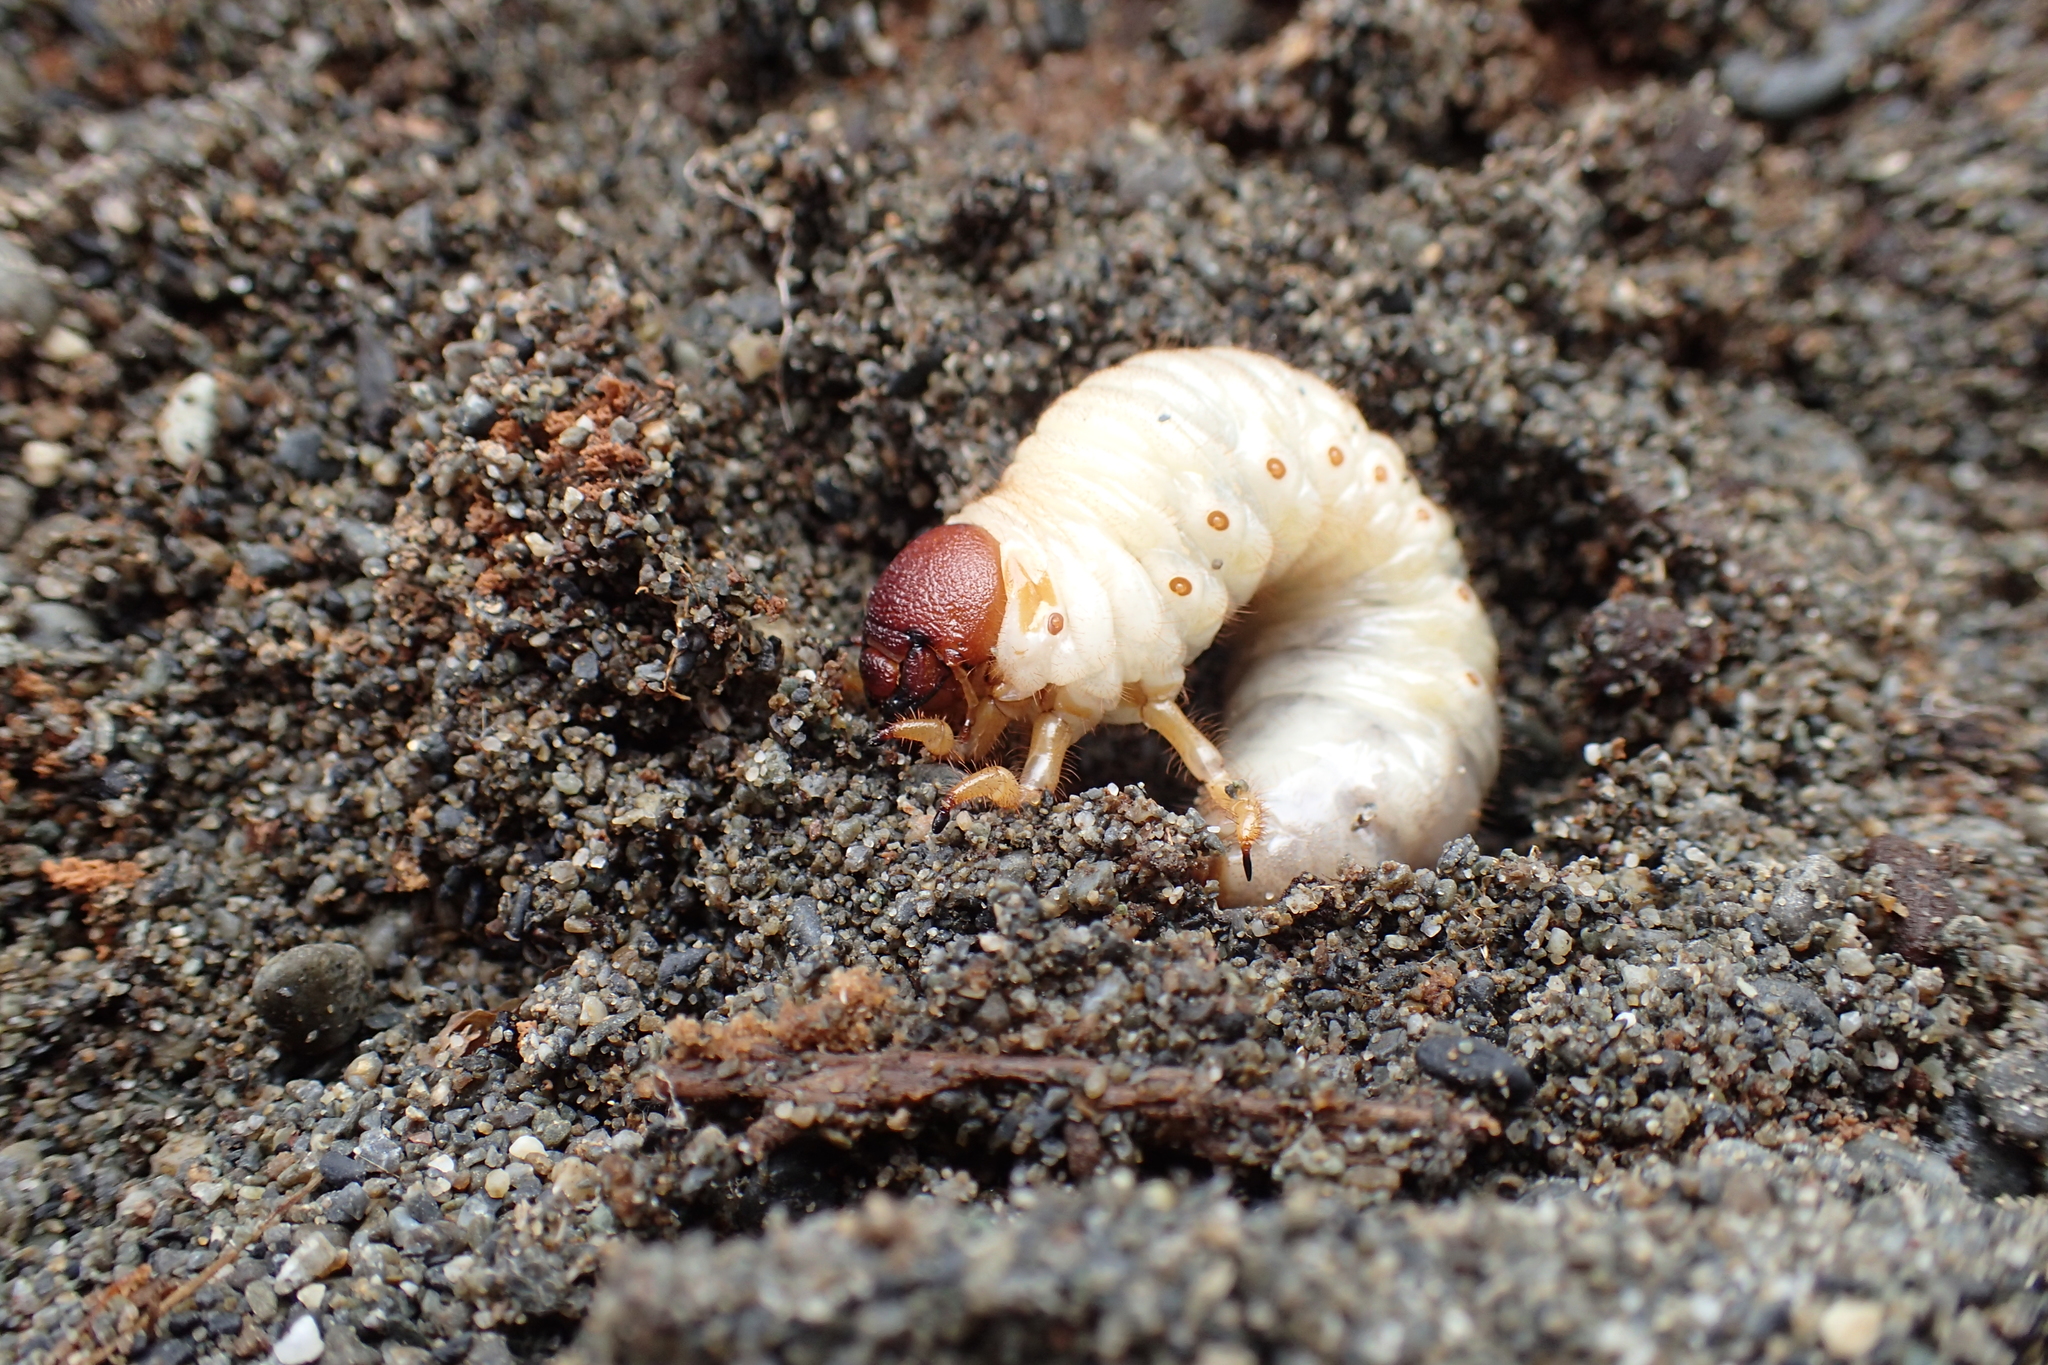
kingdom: Animalia
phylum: Arthropoda
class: Insecta
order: Coleoptera
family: Scarabaeidae
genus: Pericoptus
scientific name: Pericoptus truncatus
